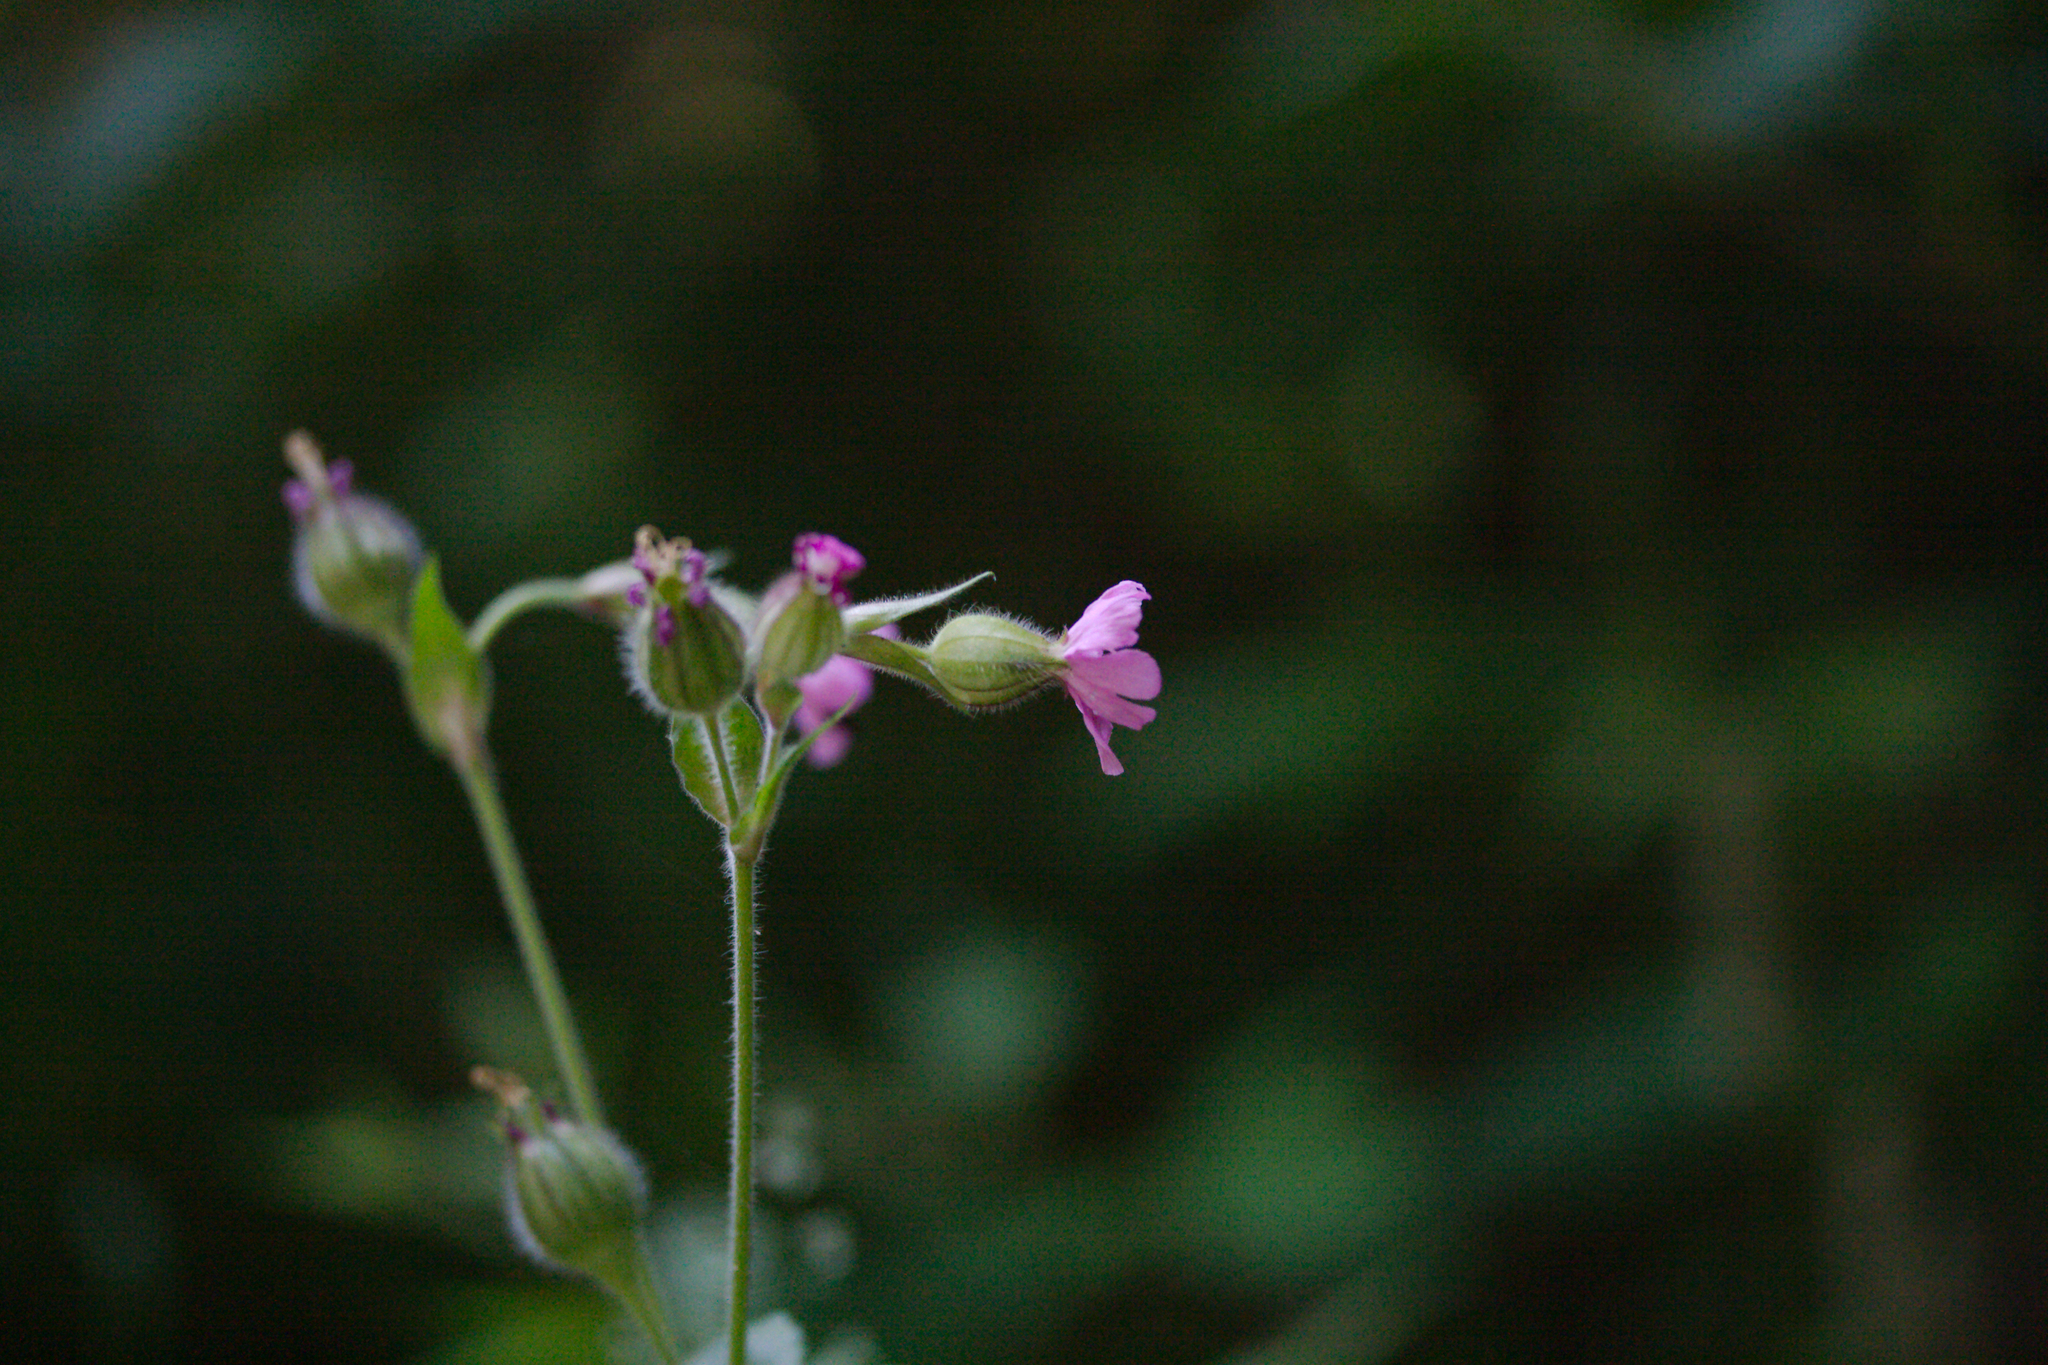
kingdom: Plantae
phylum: Tracheophyta
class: Magnoliopsida
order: Caryophyllales
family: Caryophyllaceae
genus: Silene
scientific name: Silene dioica
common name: Red campion
